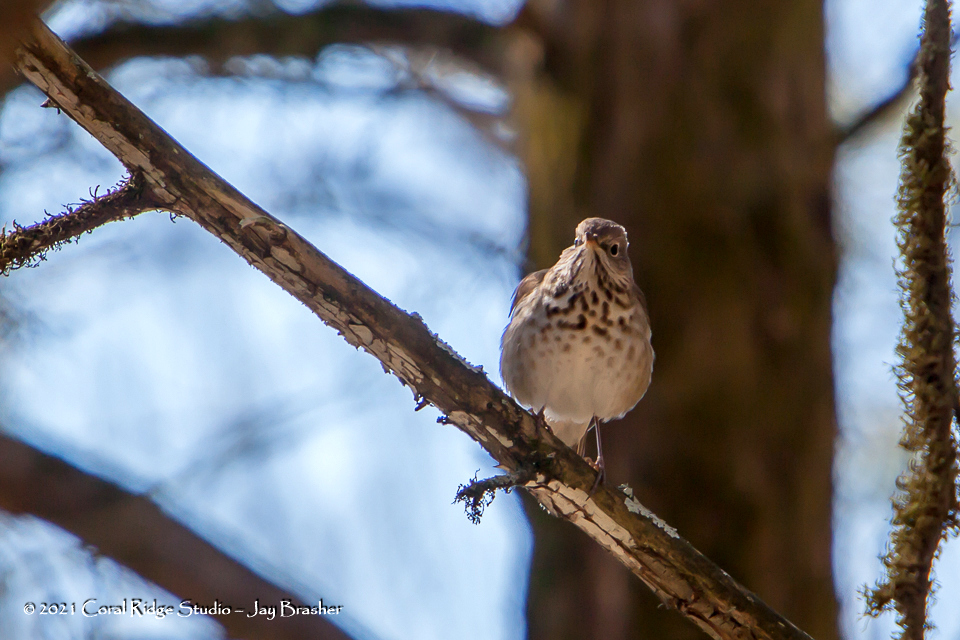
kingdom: Animalia
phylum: Chordata
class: Aves
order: Passeriformes
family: Turdidae
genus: Catharus
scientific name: Catharus guttatus
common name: Hermit thrush
